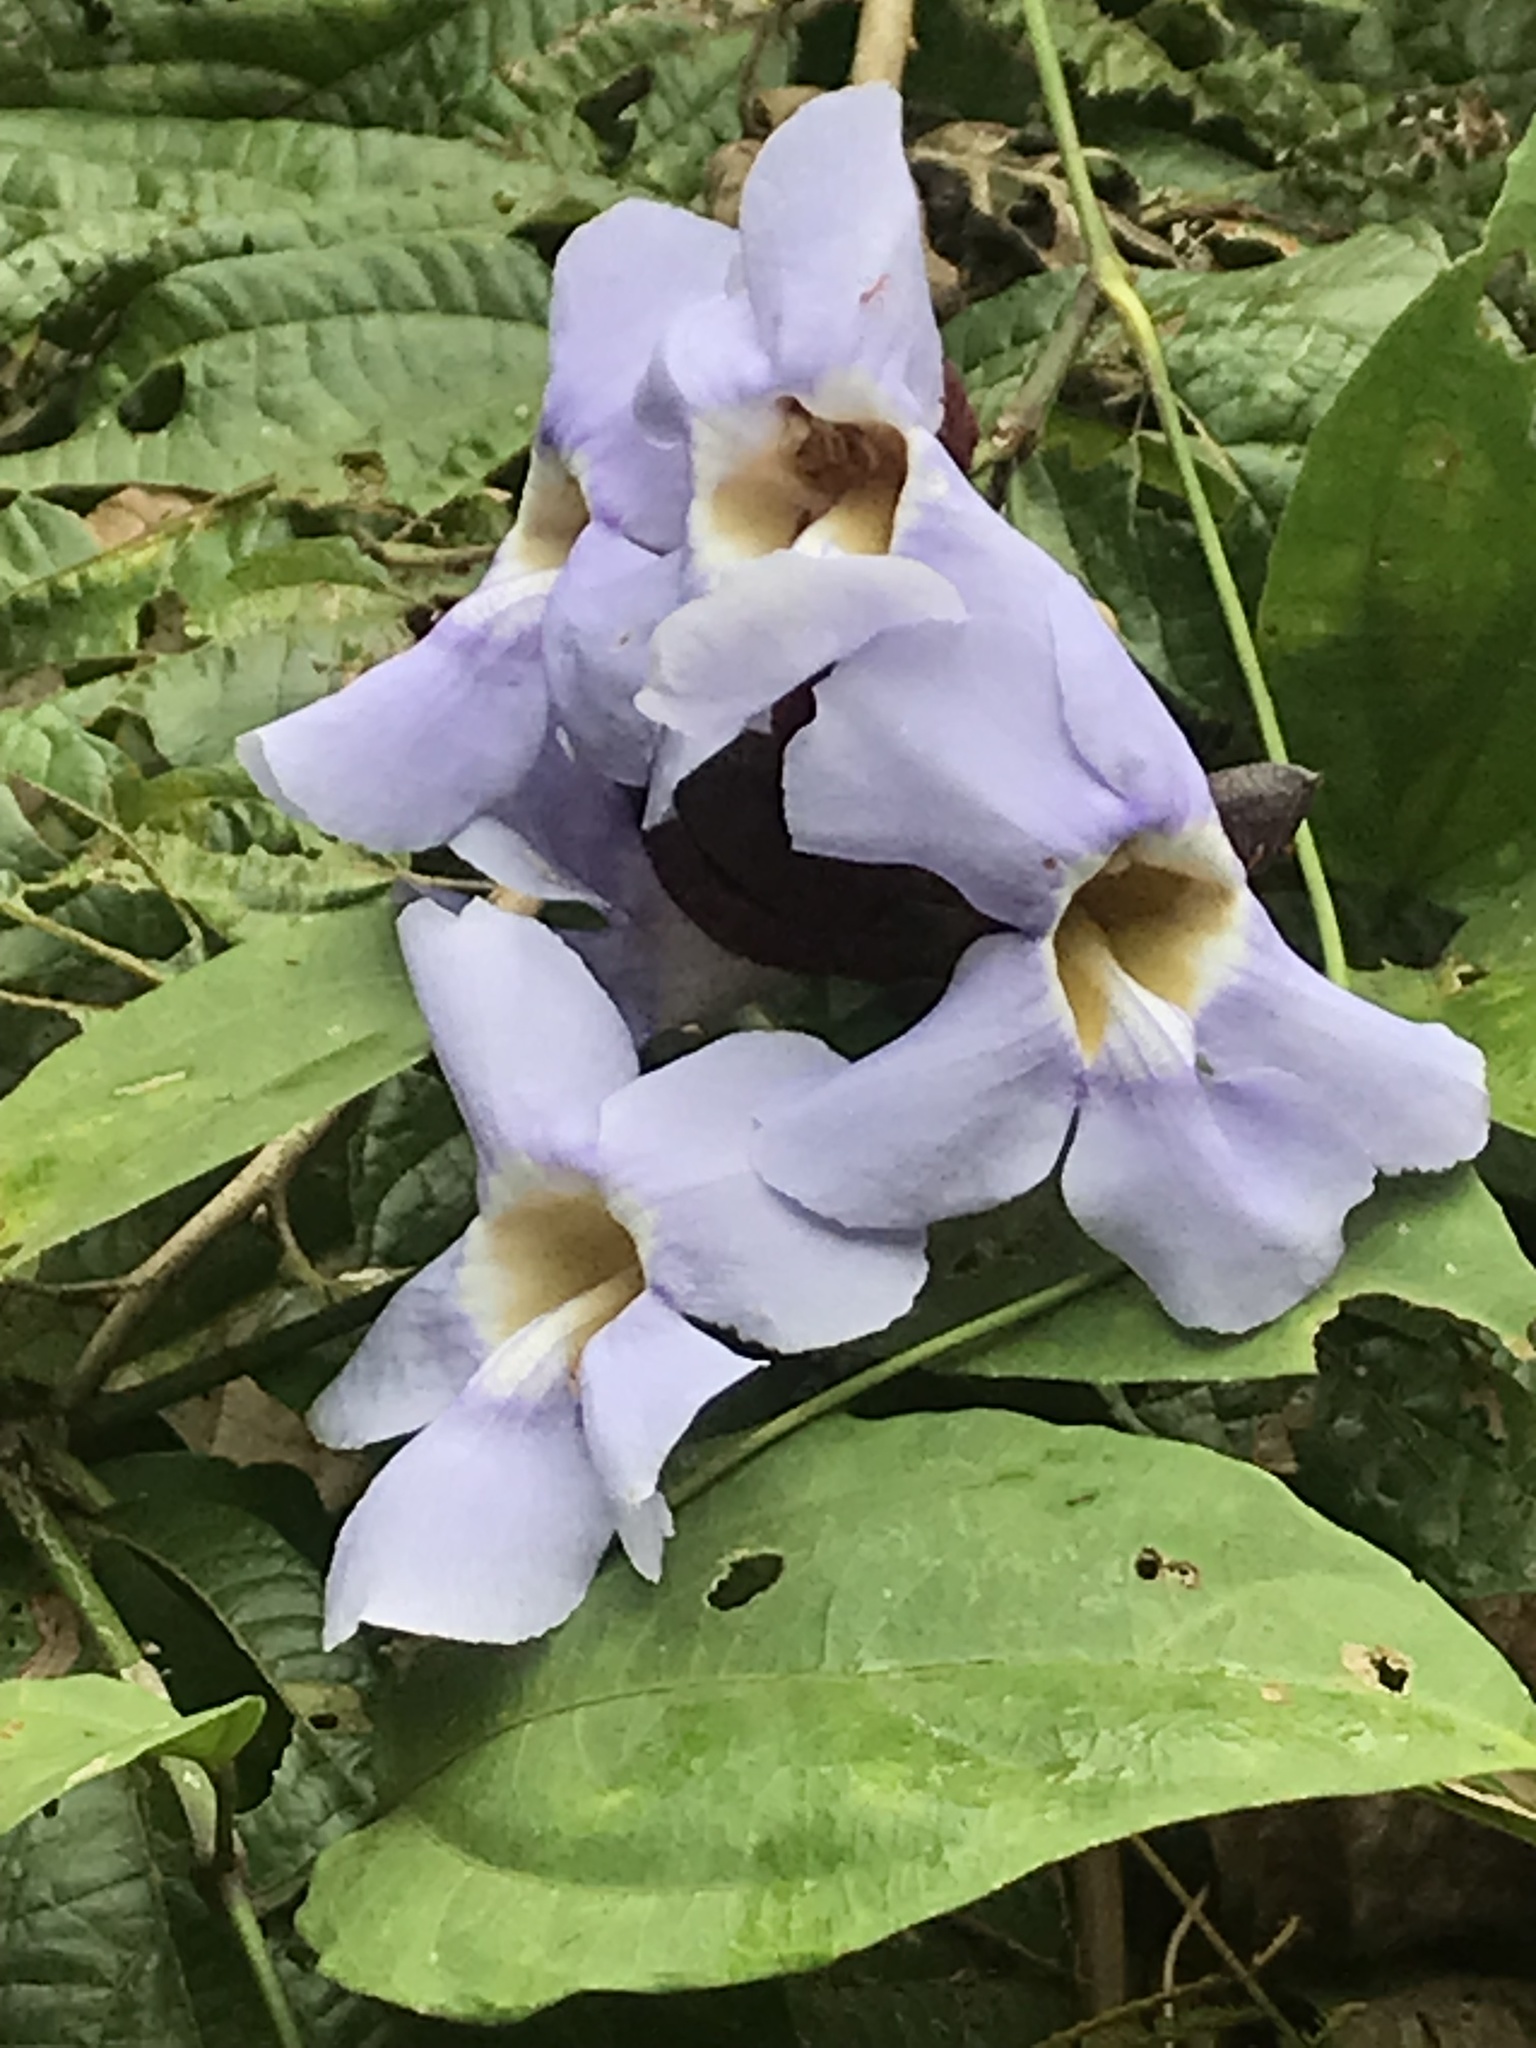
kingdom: Plantae
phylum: Tracheophyta
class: Magnoliopsida
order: Lamiales
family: Acanthaceae
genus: Thunbergia
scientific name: Thunbergia laurifolia
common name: Laurel-leaved thunbergia
